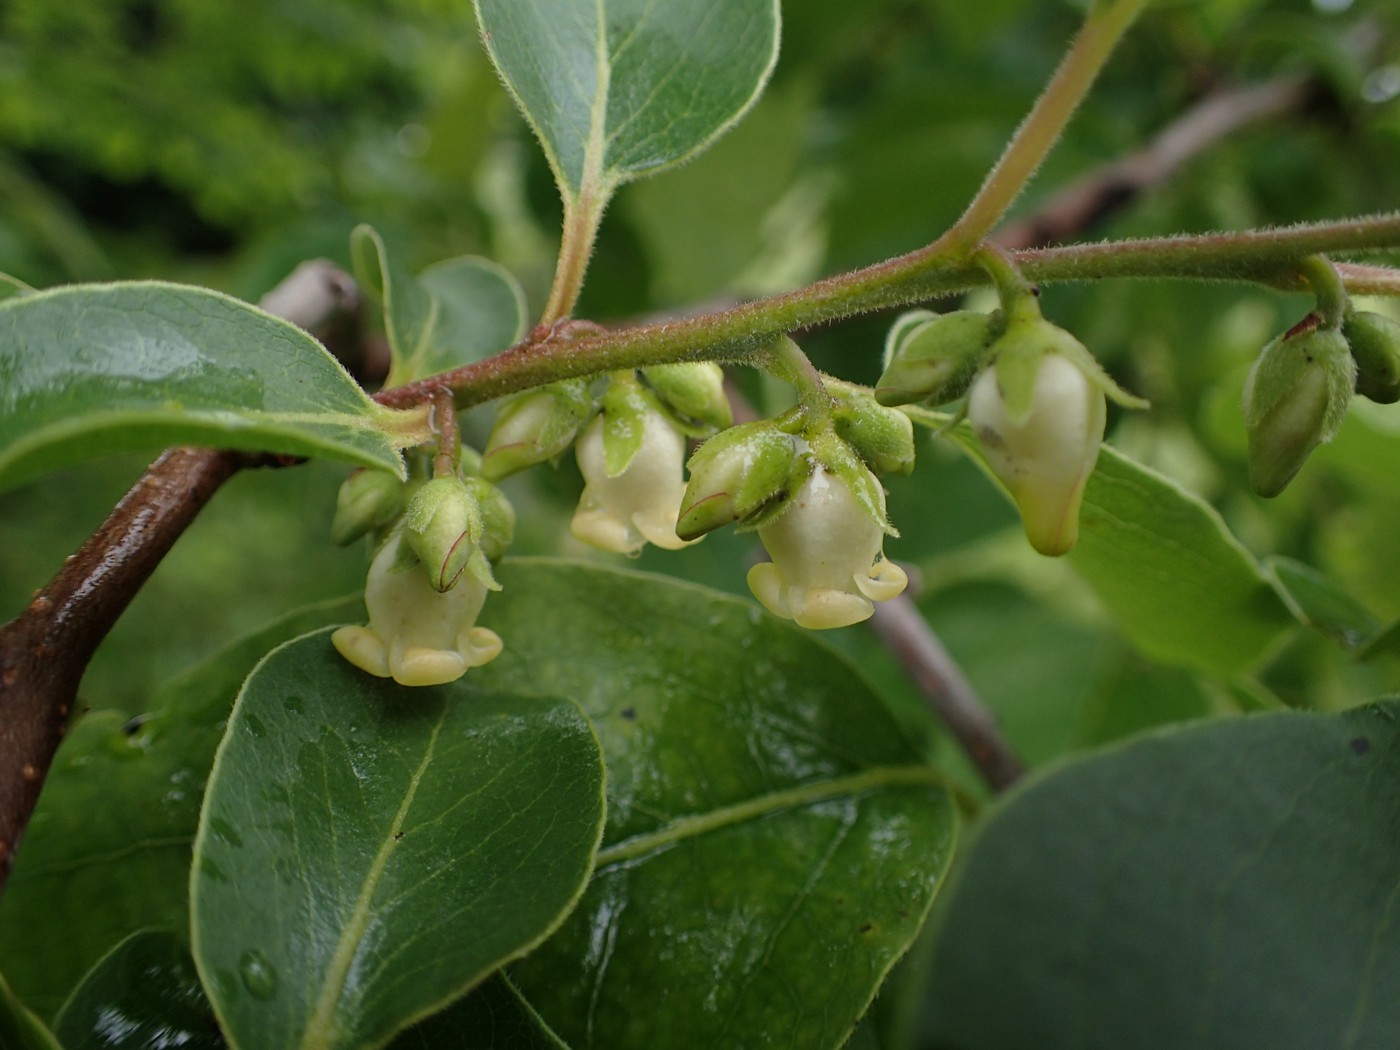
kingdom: Plantae
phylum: Tracheophyta
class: Magnoliopsida
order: Ericales
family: Ebenaceae
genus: Diospyros
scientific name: Diospyros virginiana
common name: Persimmon
